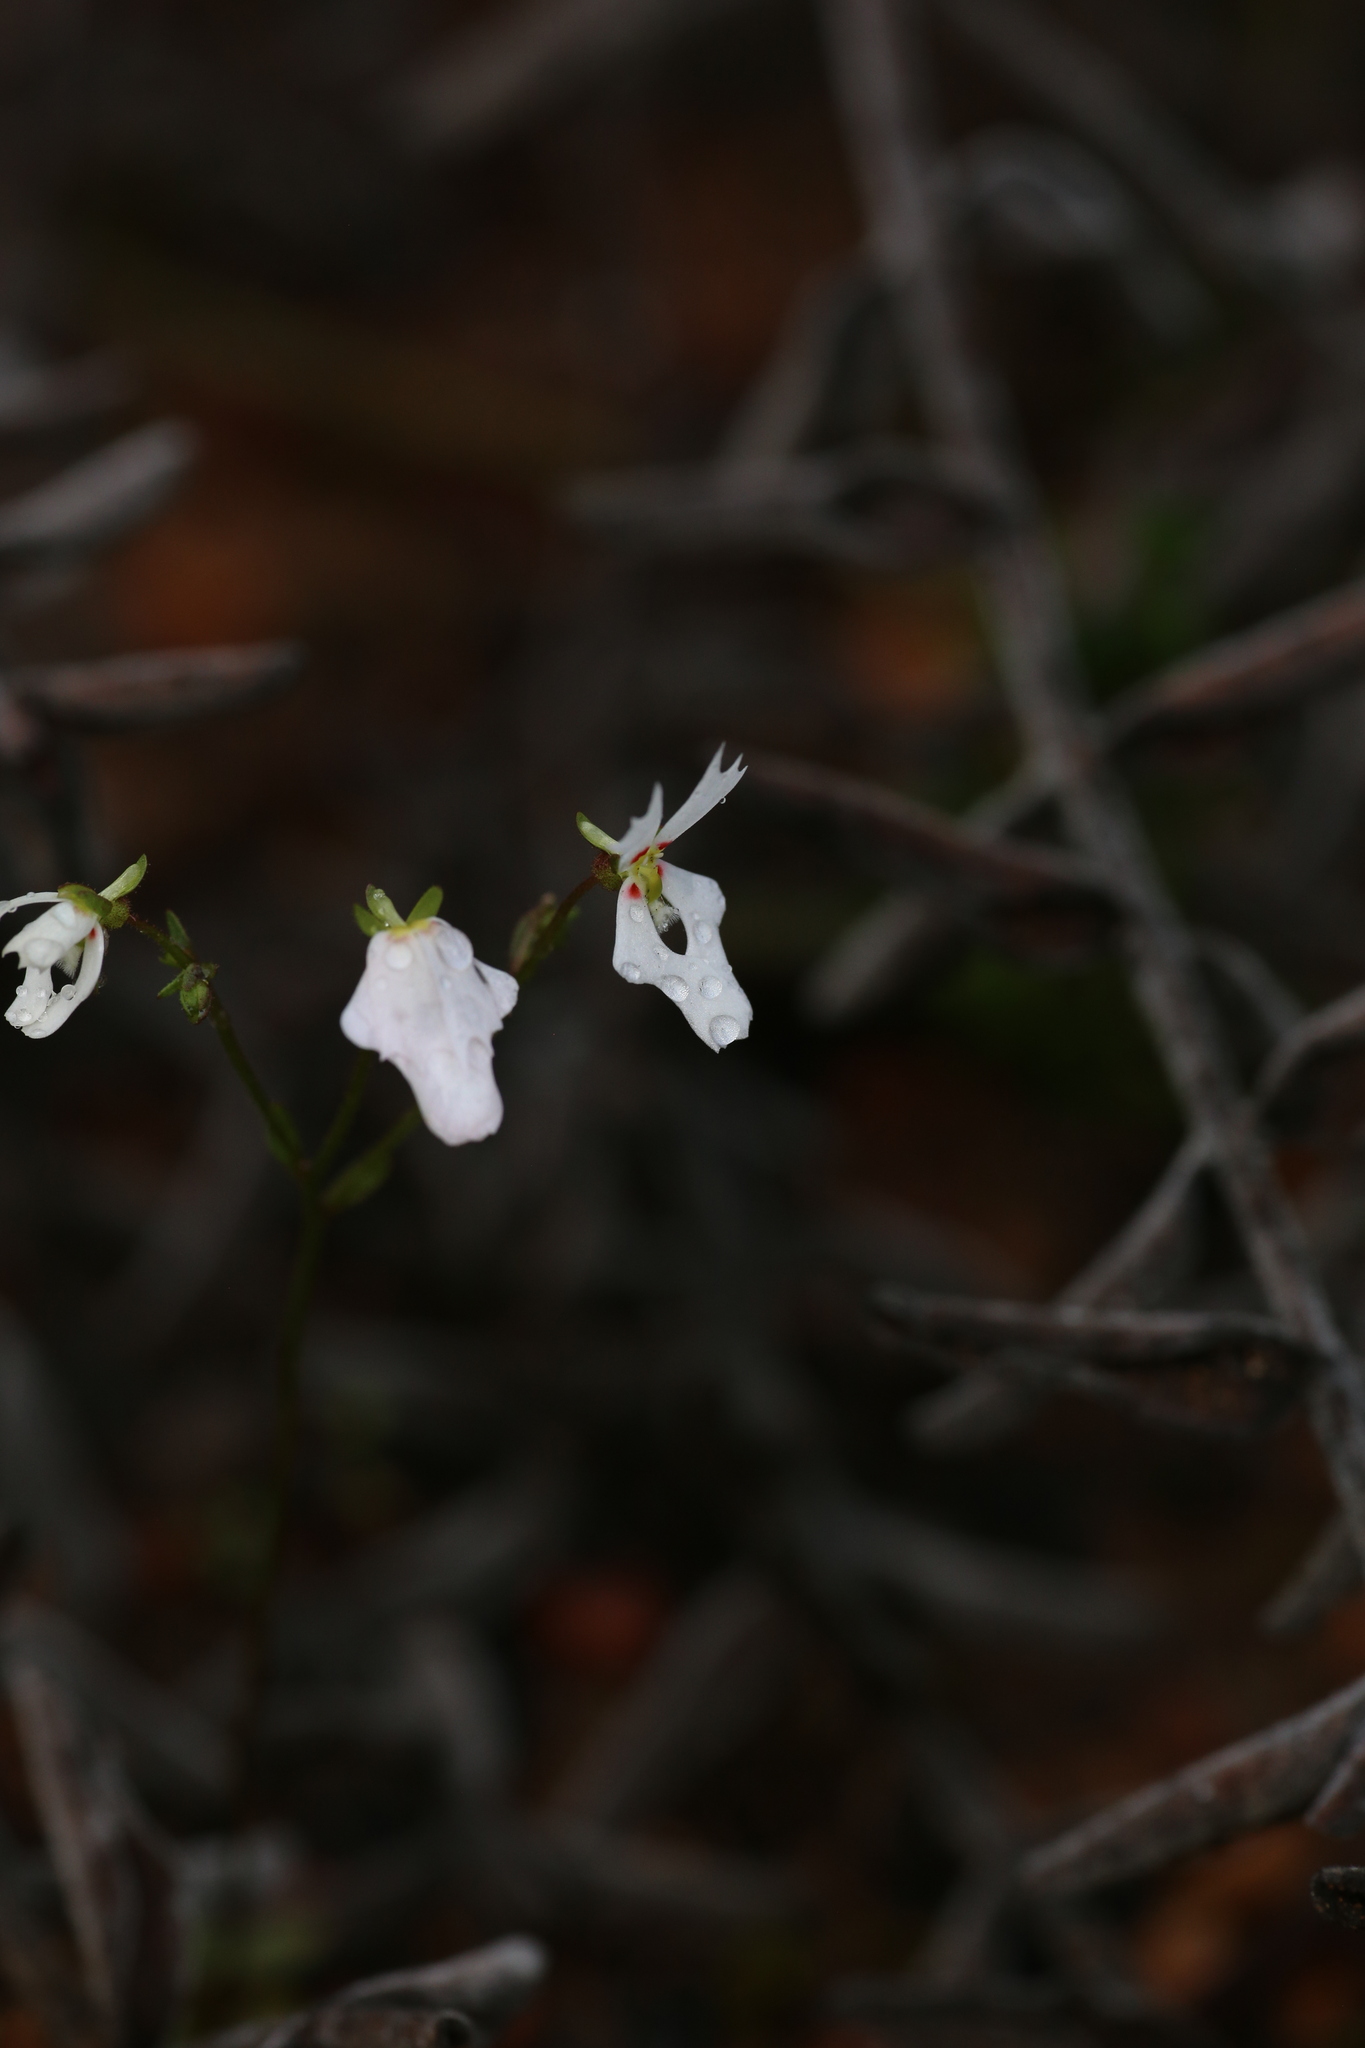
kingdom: Plantae
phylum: Tracheophyta
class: Magnoliopsida
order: Asterales
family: Stylidiaceae
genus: Stylidium
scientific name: Stylidium androsaceum
